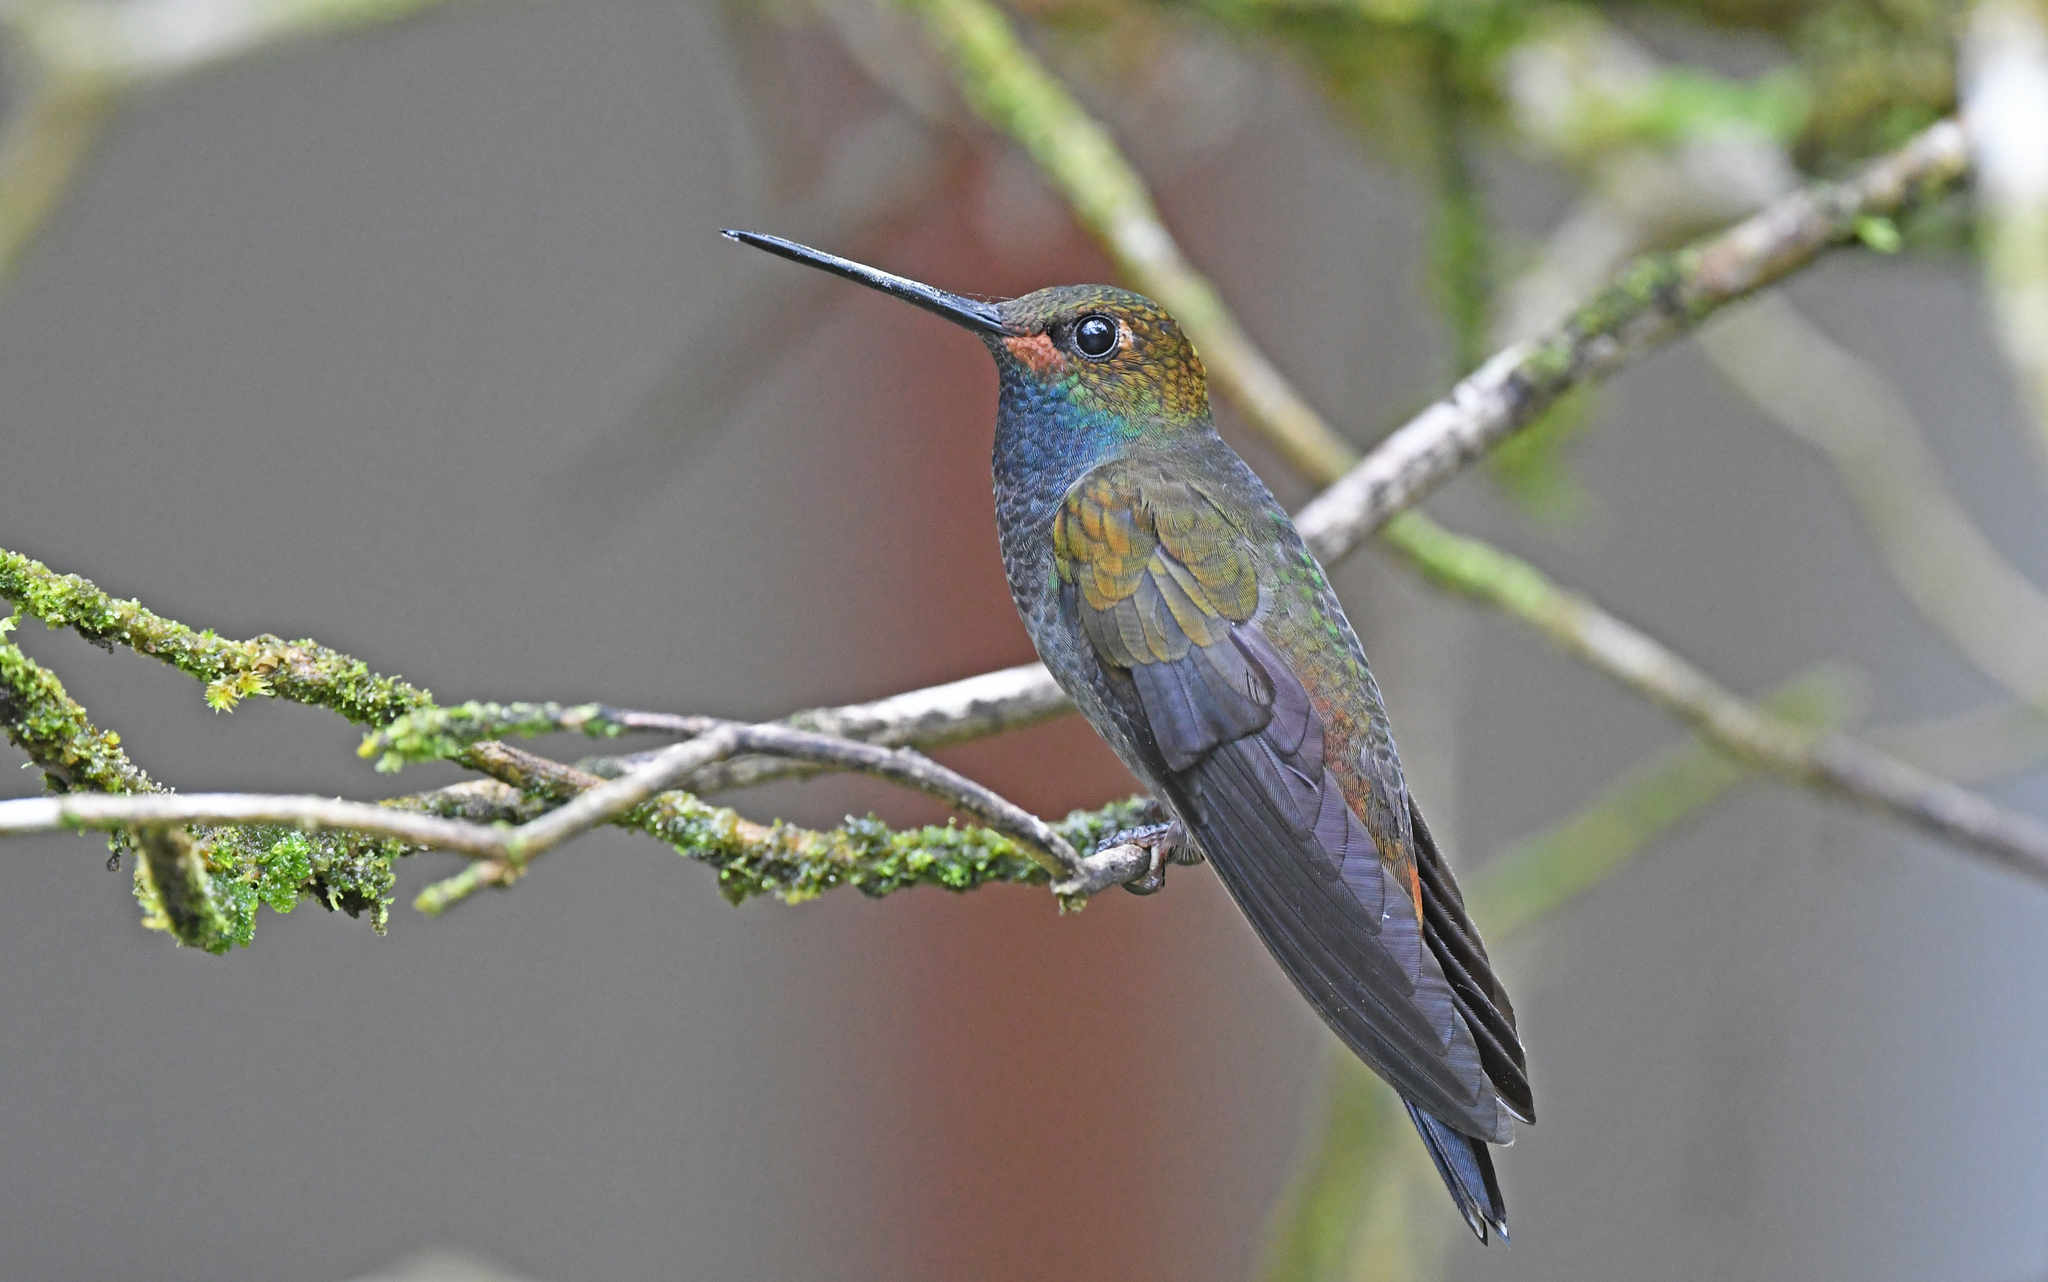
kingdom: Animalia
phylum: Chordata
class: Aves
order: Apodiformes
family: Trochilidae
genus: Urochroa
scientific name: Urochroa bougueri
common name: White-tailed hillstar
